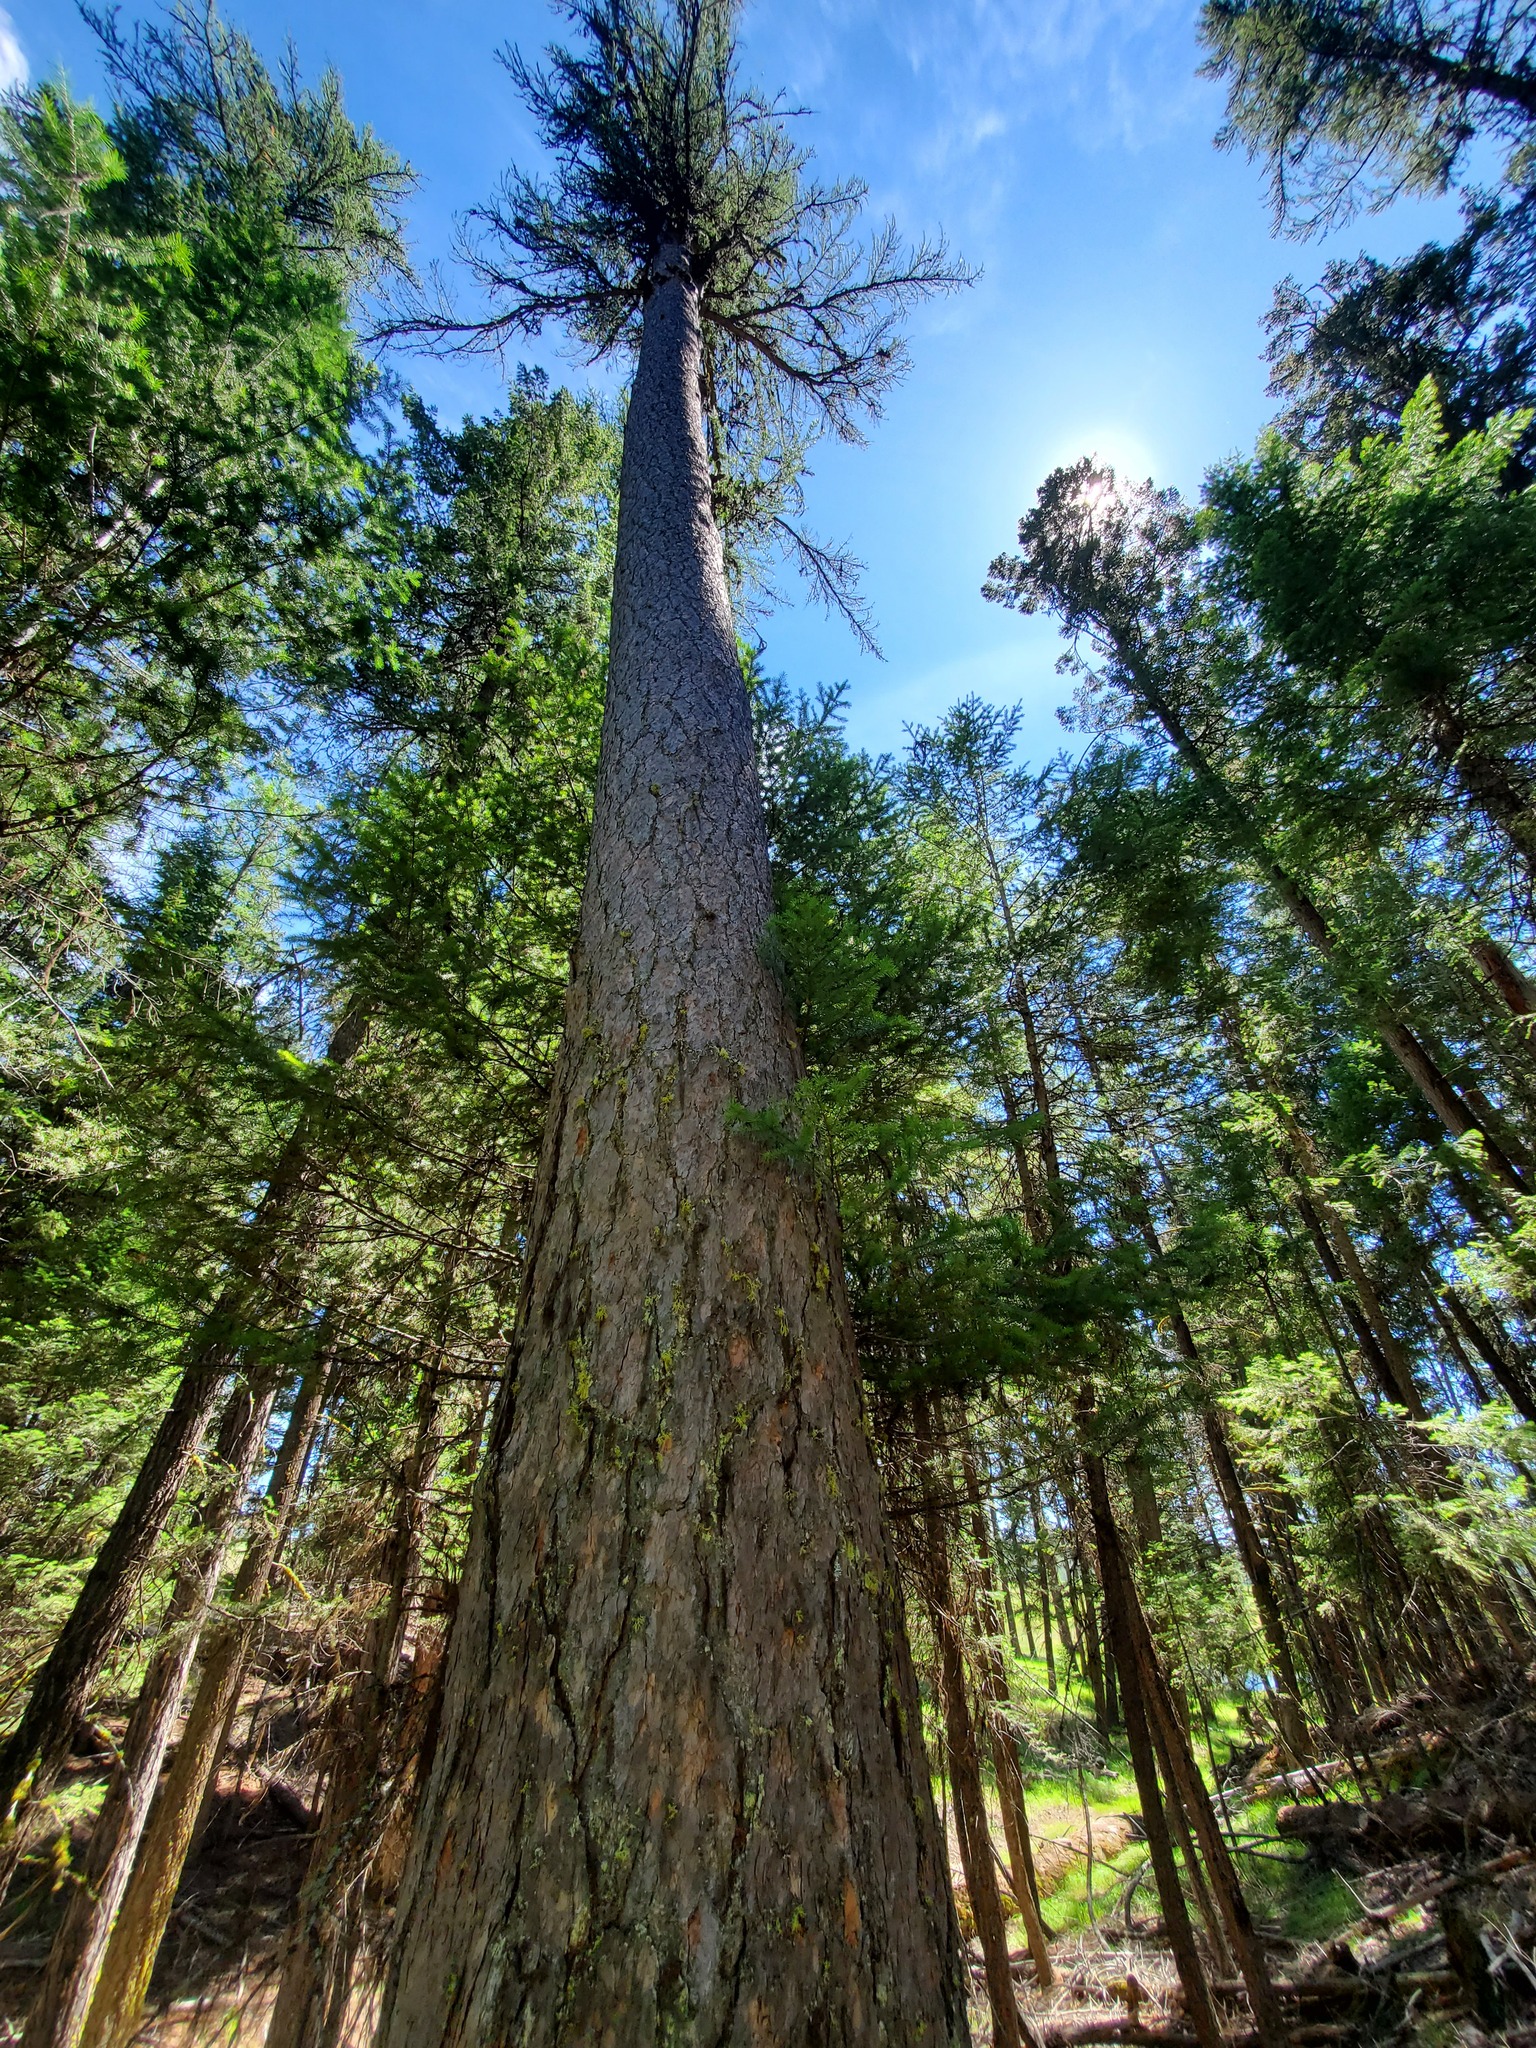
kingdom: Plantae
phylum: Tracheophyta
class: Pinopsida
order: Pinales
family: Pinaceae
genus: Larix
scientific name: Larix occidentalis
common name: Western larch
